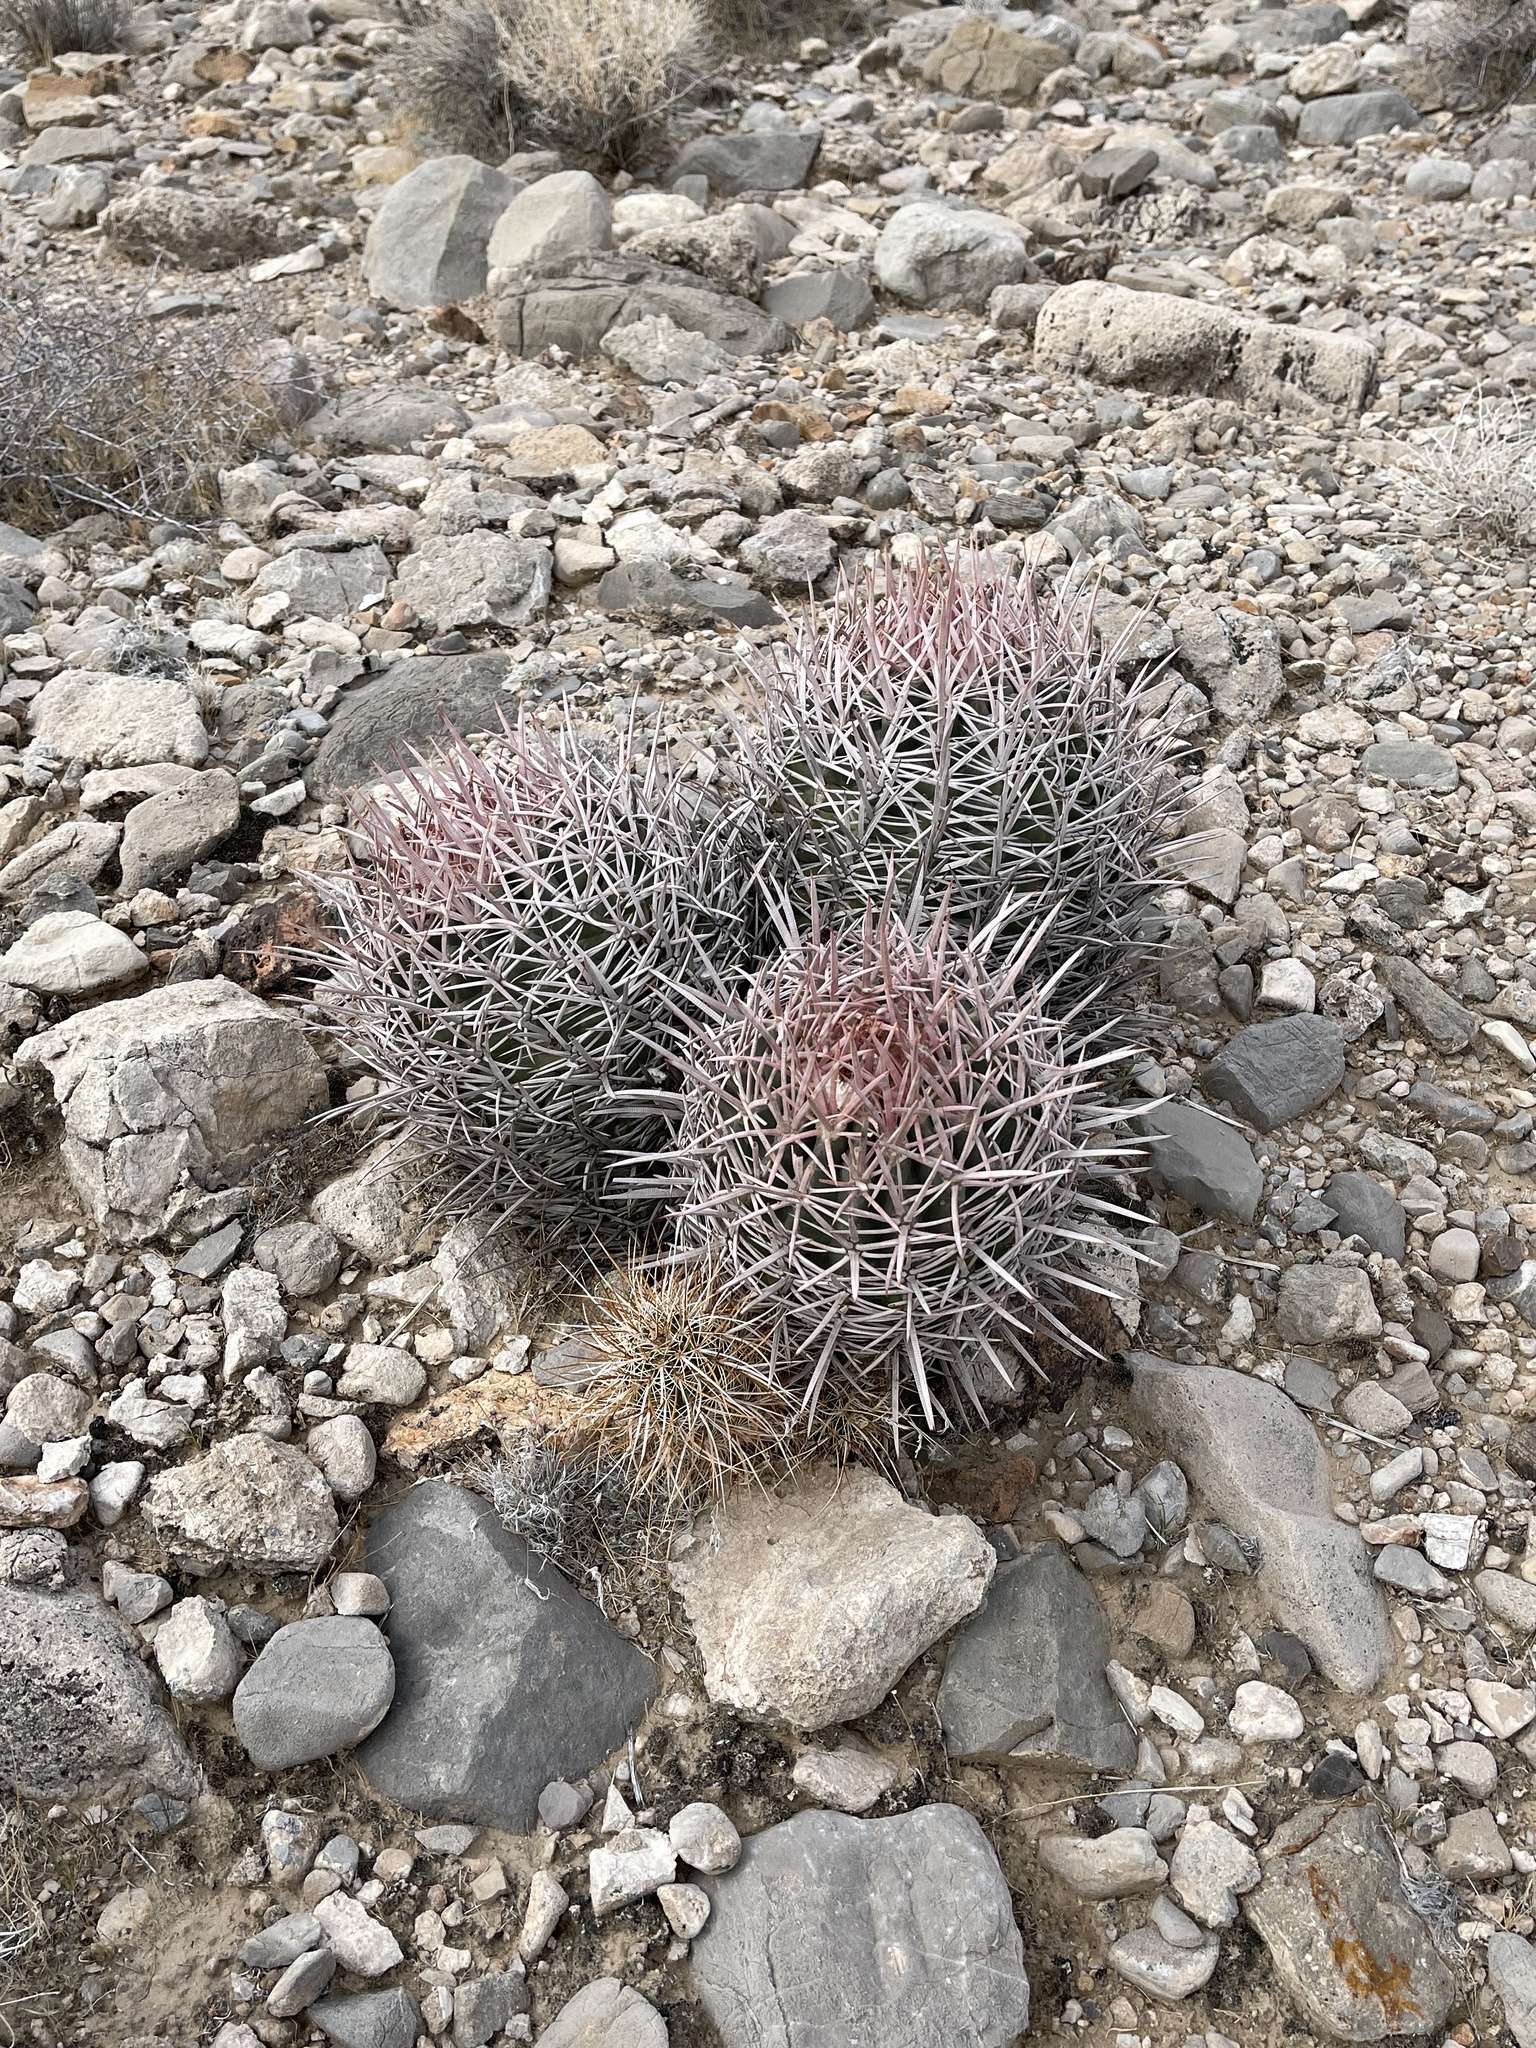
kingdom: Plantae
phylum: Tracheophyta
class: Magnoliopsida
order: Caryophyllales
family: Cactaceae
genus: Echinocactus
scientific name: Echinocactus polycephalus
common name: Cottontop cactus
